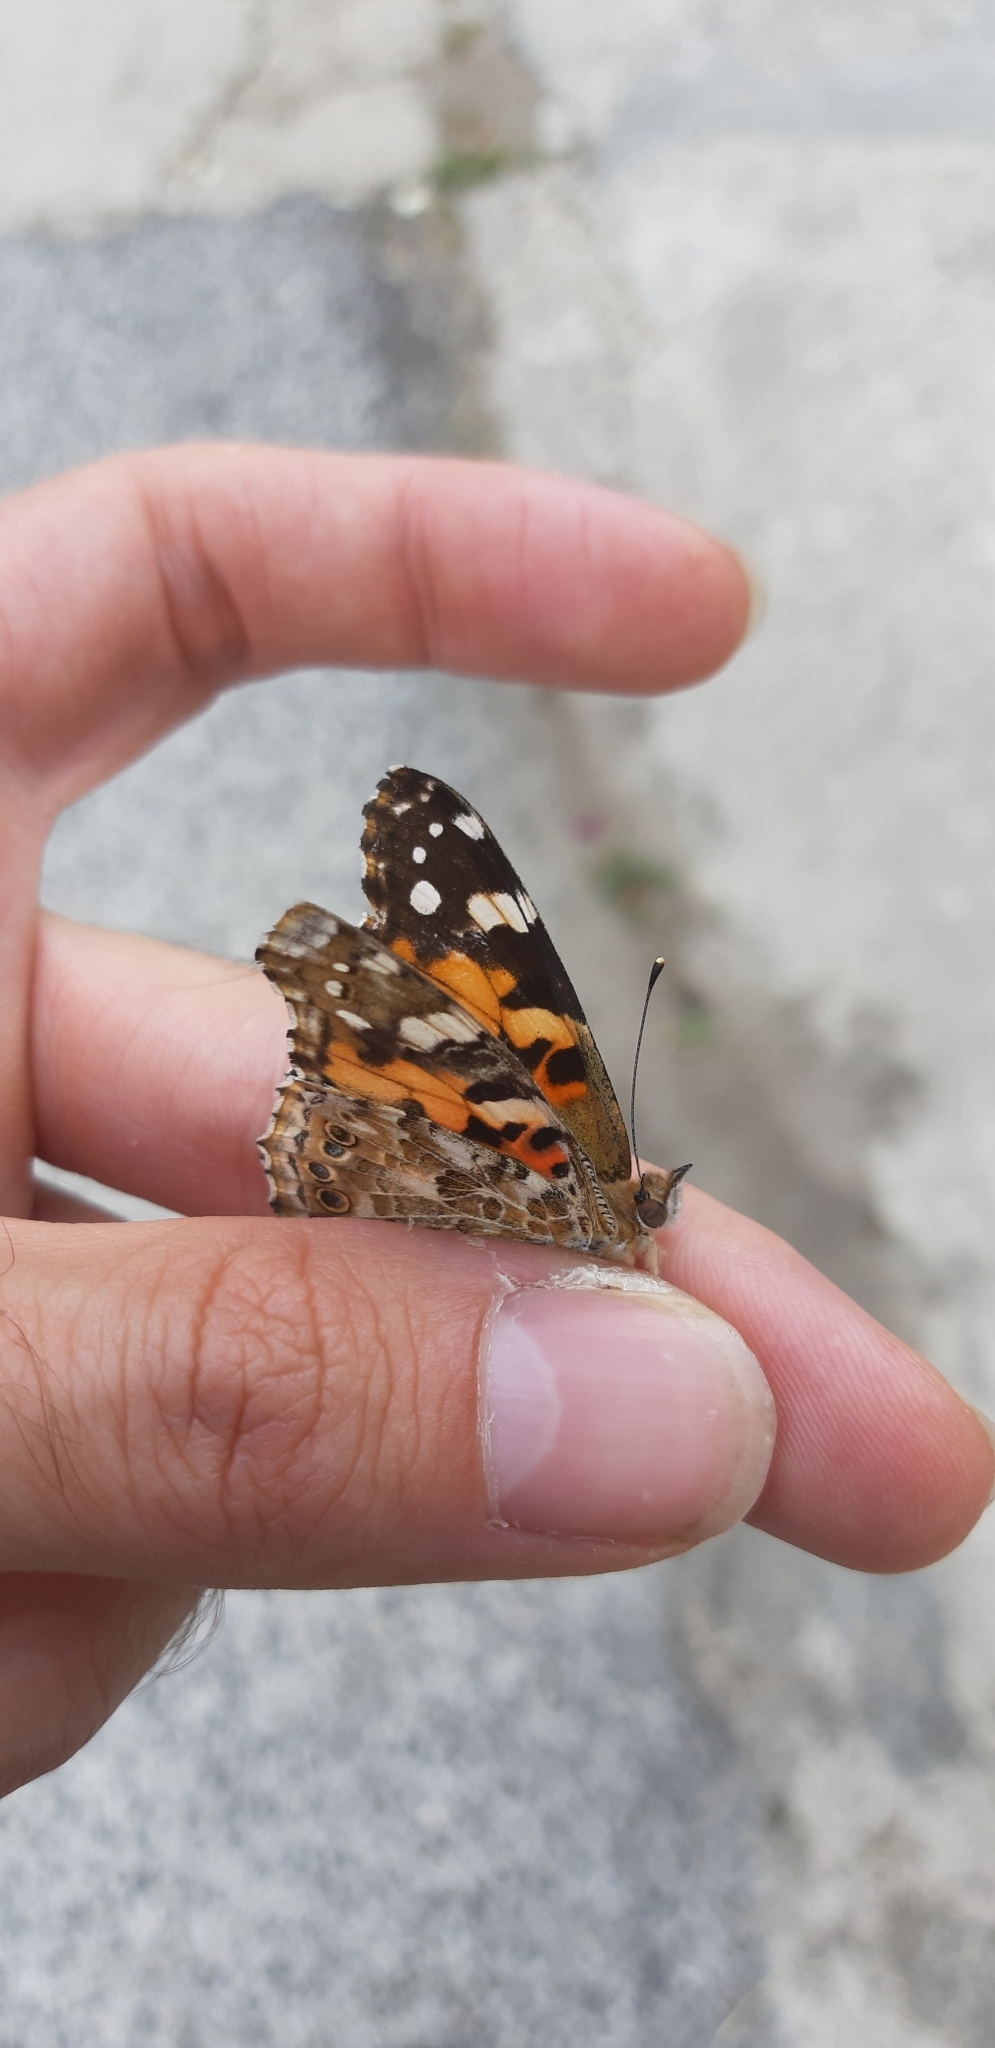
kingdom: Animalia
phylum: Arthropoda
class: Insecta
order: Lepidoptera
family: Nymphalidae
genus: Vanessa
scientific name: Vanessa cardui
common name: Painted lady
